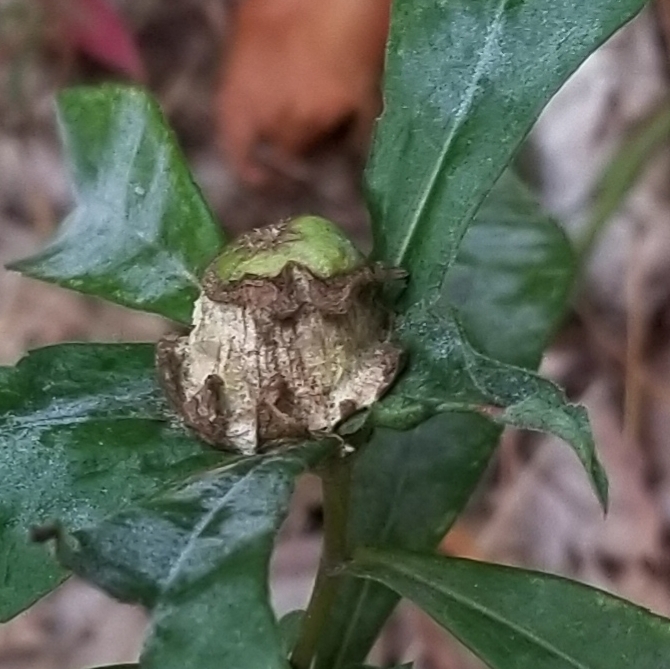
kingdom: Plantae
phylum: Tracheophyta
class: Magnoliopsida
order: Asterales
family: Asteraceae
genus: Symphyotrichum
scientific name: Symphyotrichum lanceolatum
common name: Panicled aster
